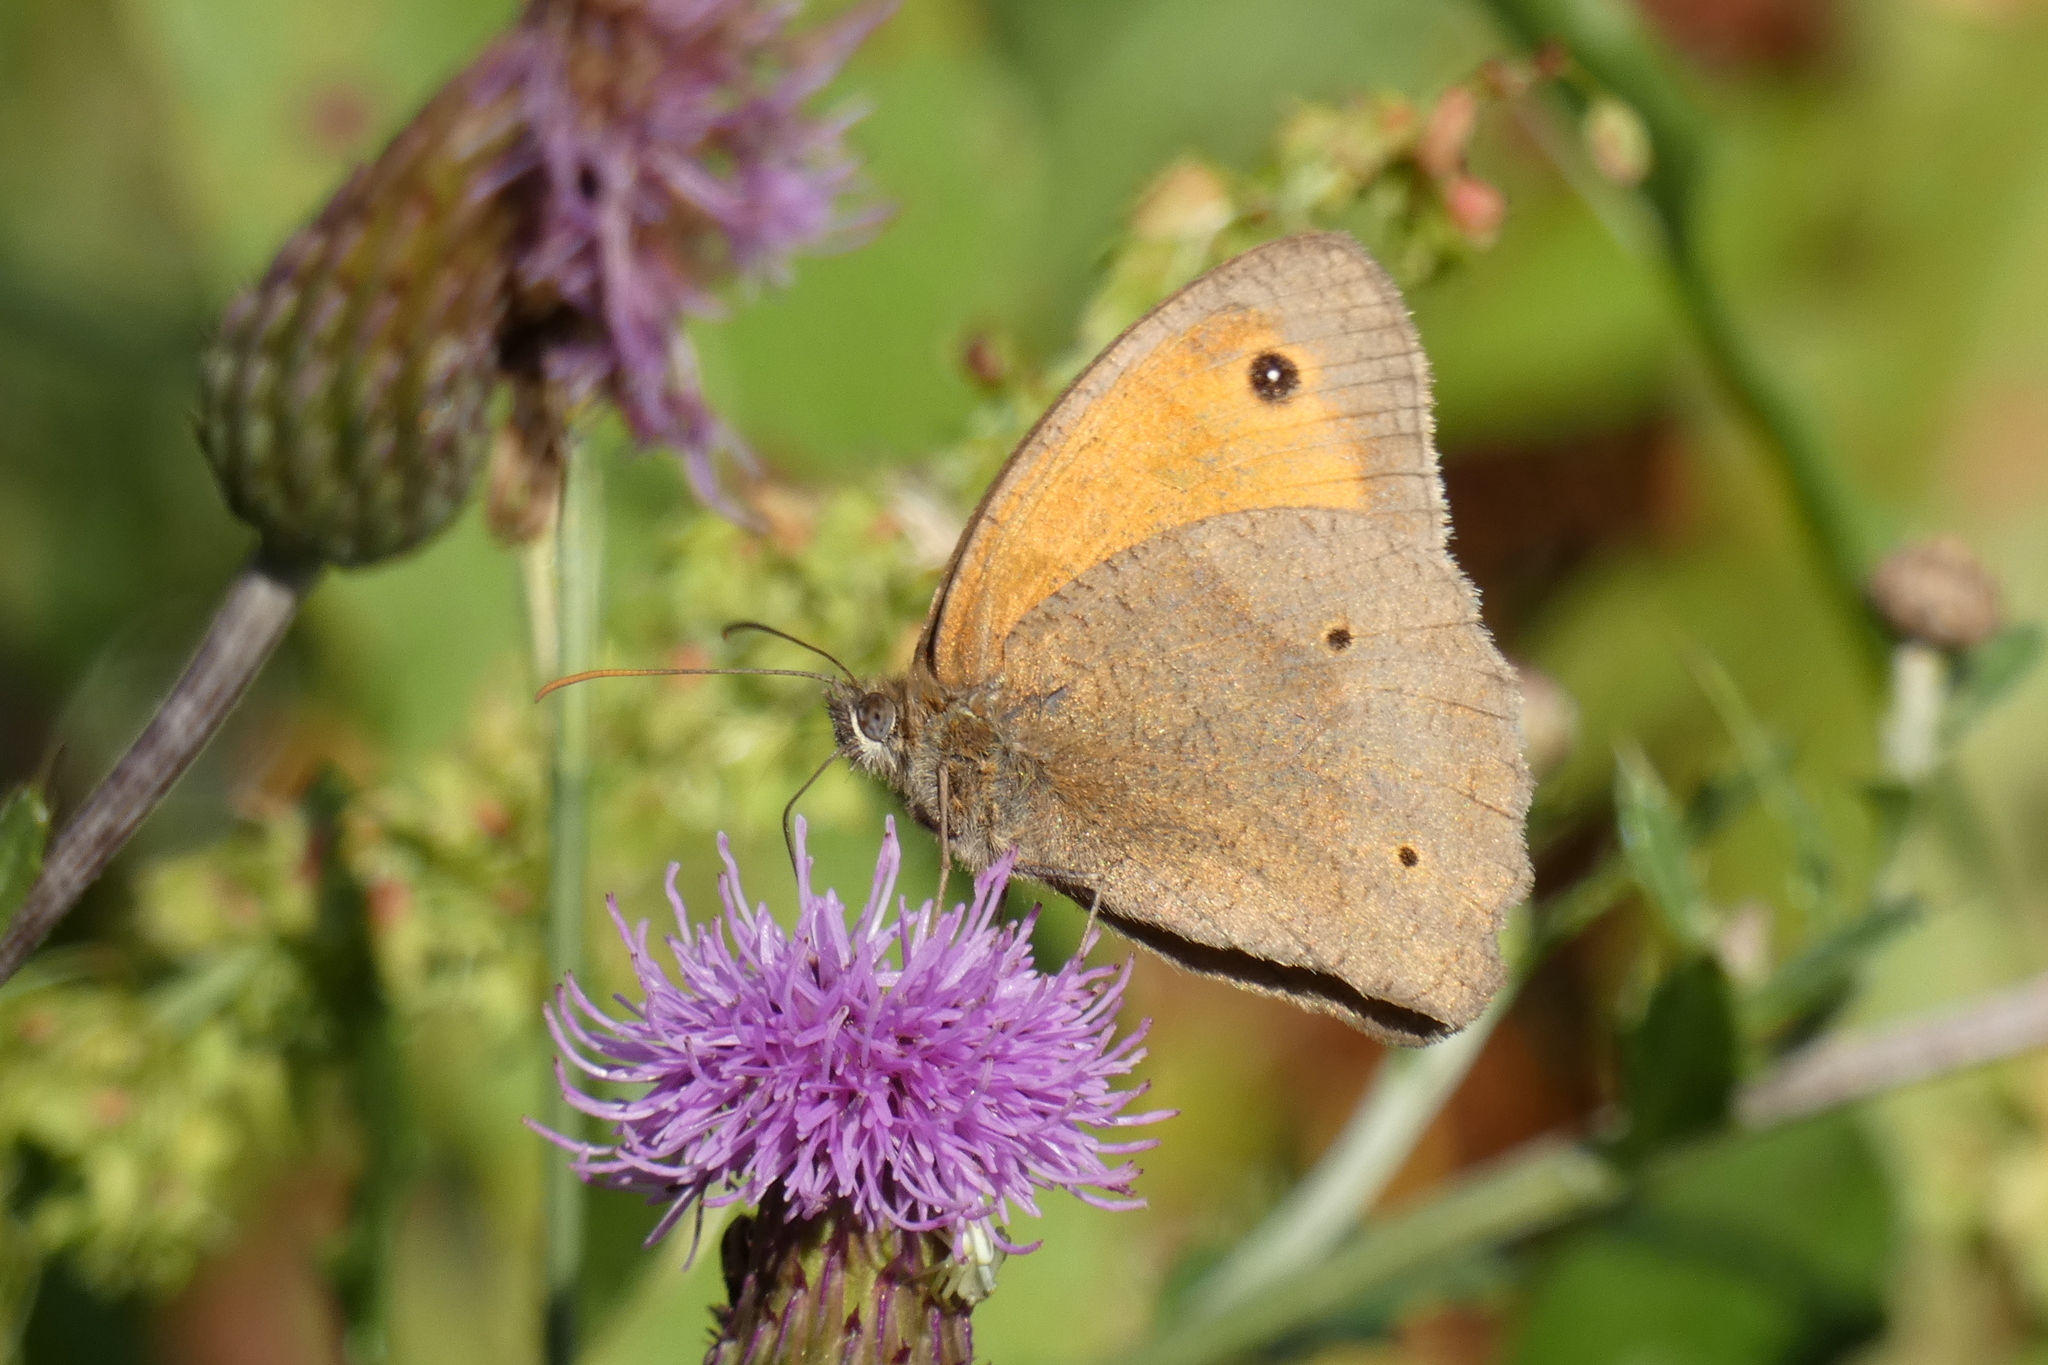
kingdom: Animalia
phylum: Arthropoda
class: Insecta
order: Lepidoptera
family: Nymphalidae
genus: Maniola
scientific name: Maniola jurtina
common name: Meadow brown
